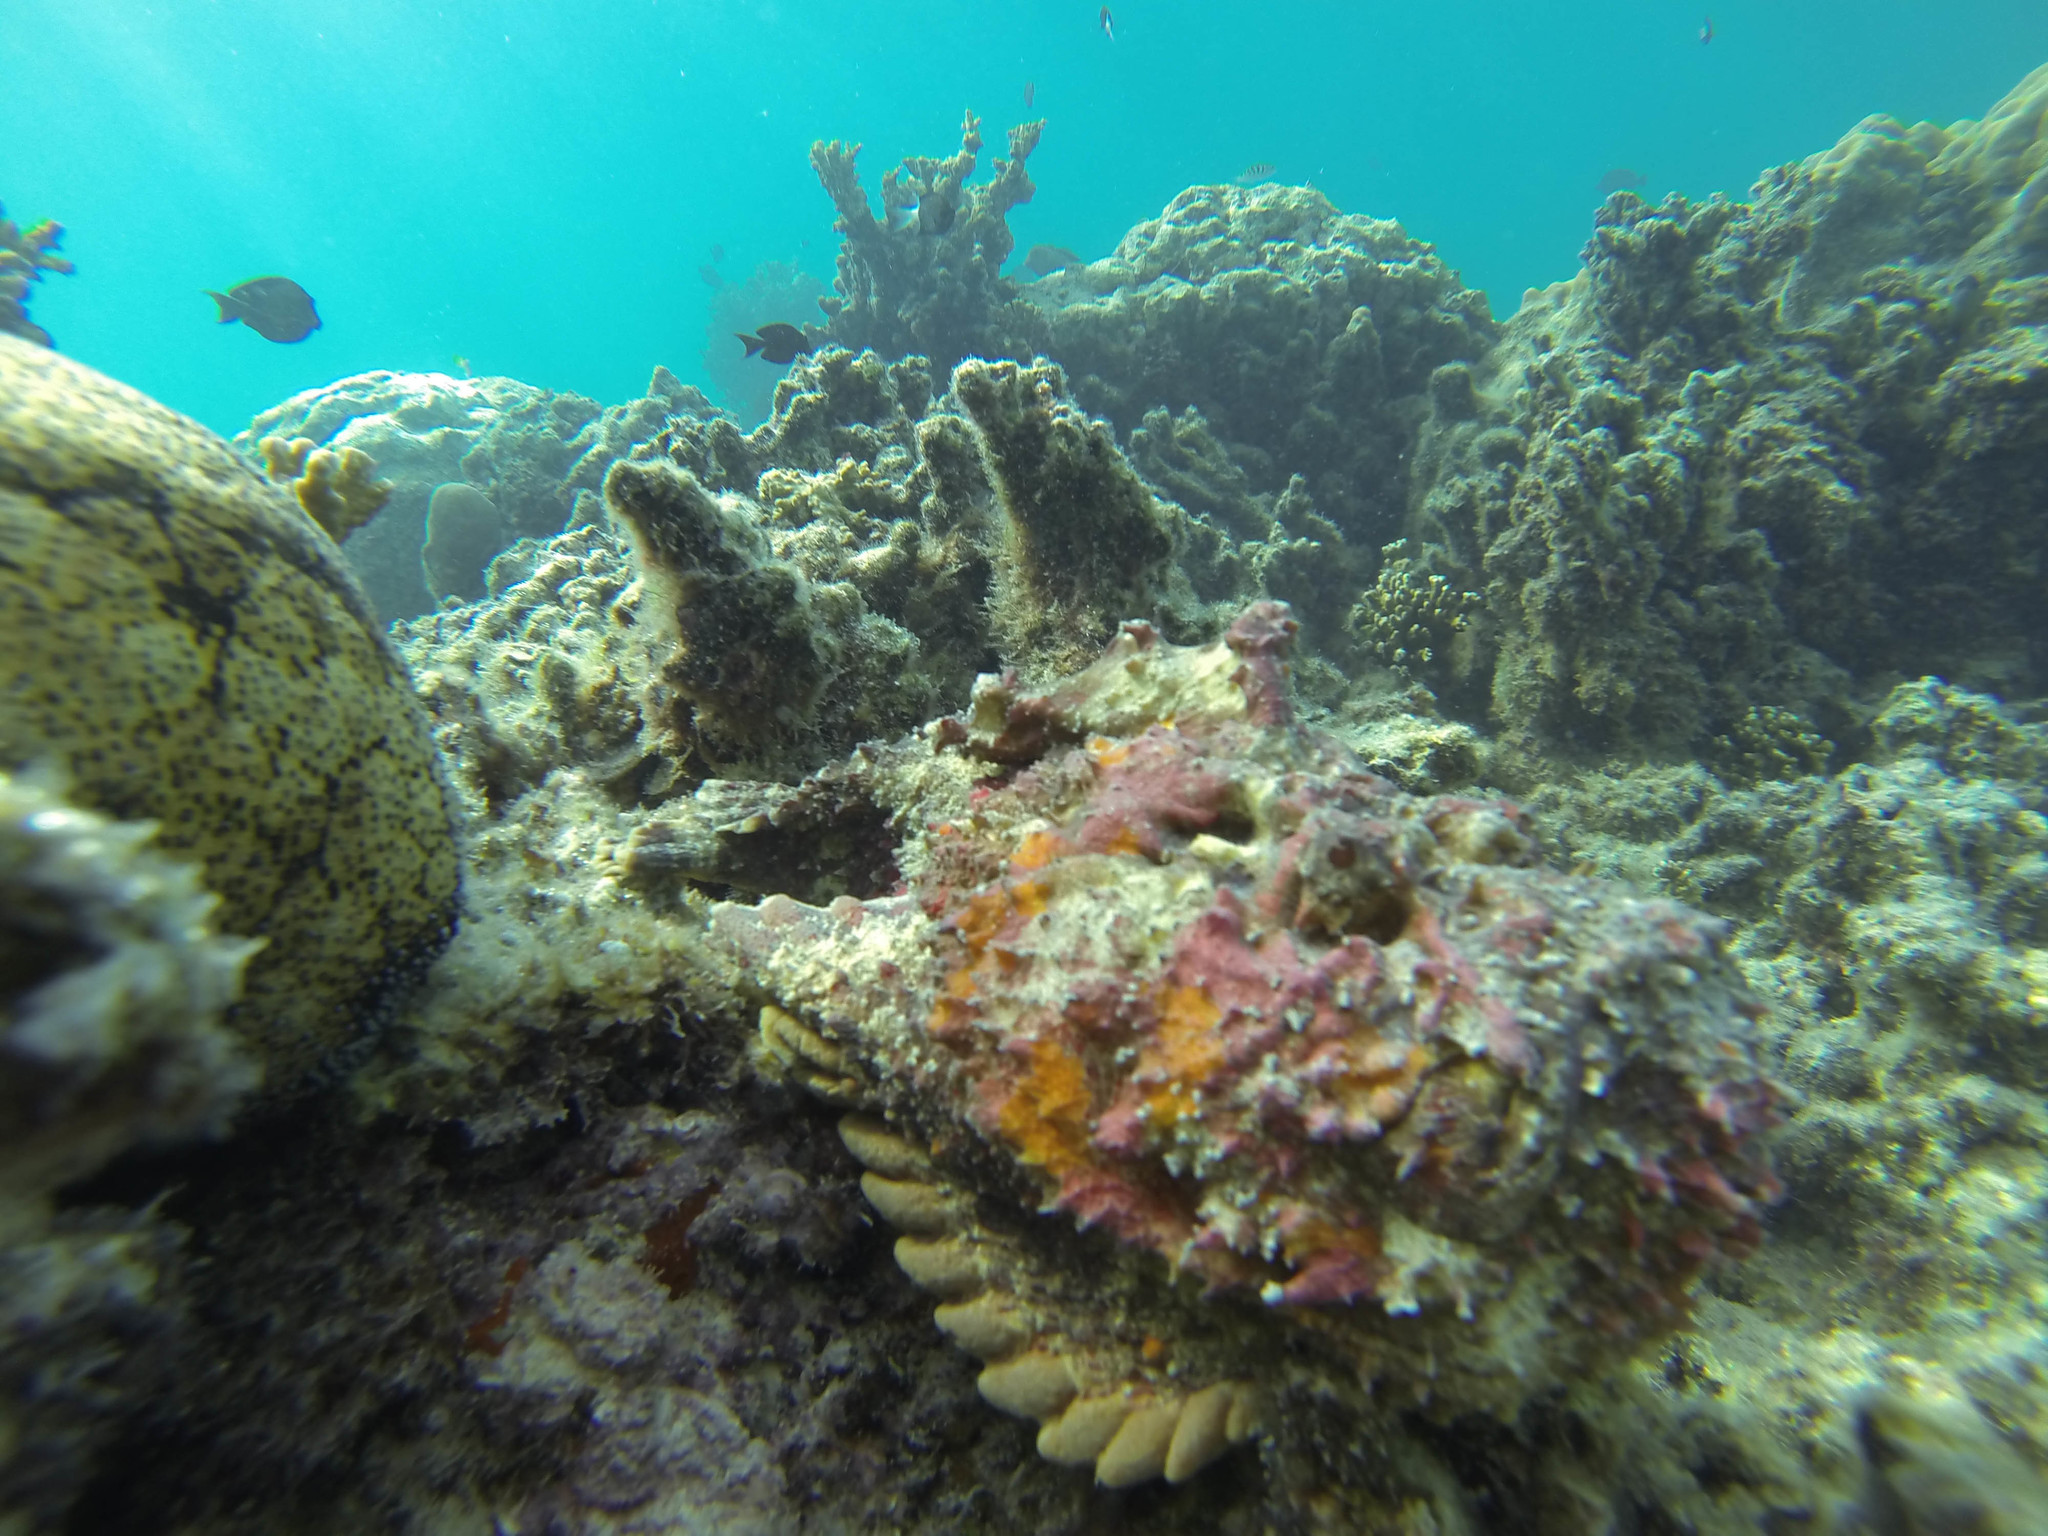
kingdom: Animalia
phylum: Chordata
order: Scorpaeniformes
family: Synanceiidae
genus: Synanceia
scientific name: Synanceia verrucosa
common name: Stonefish
